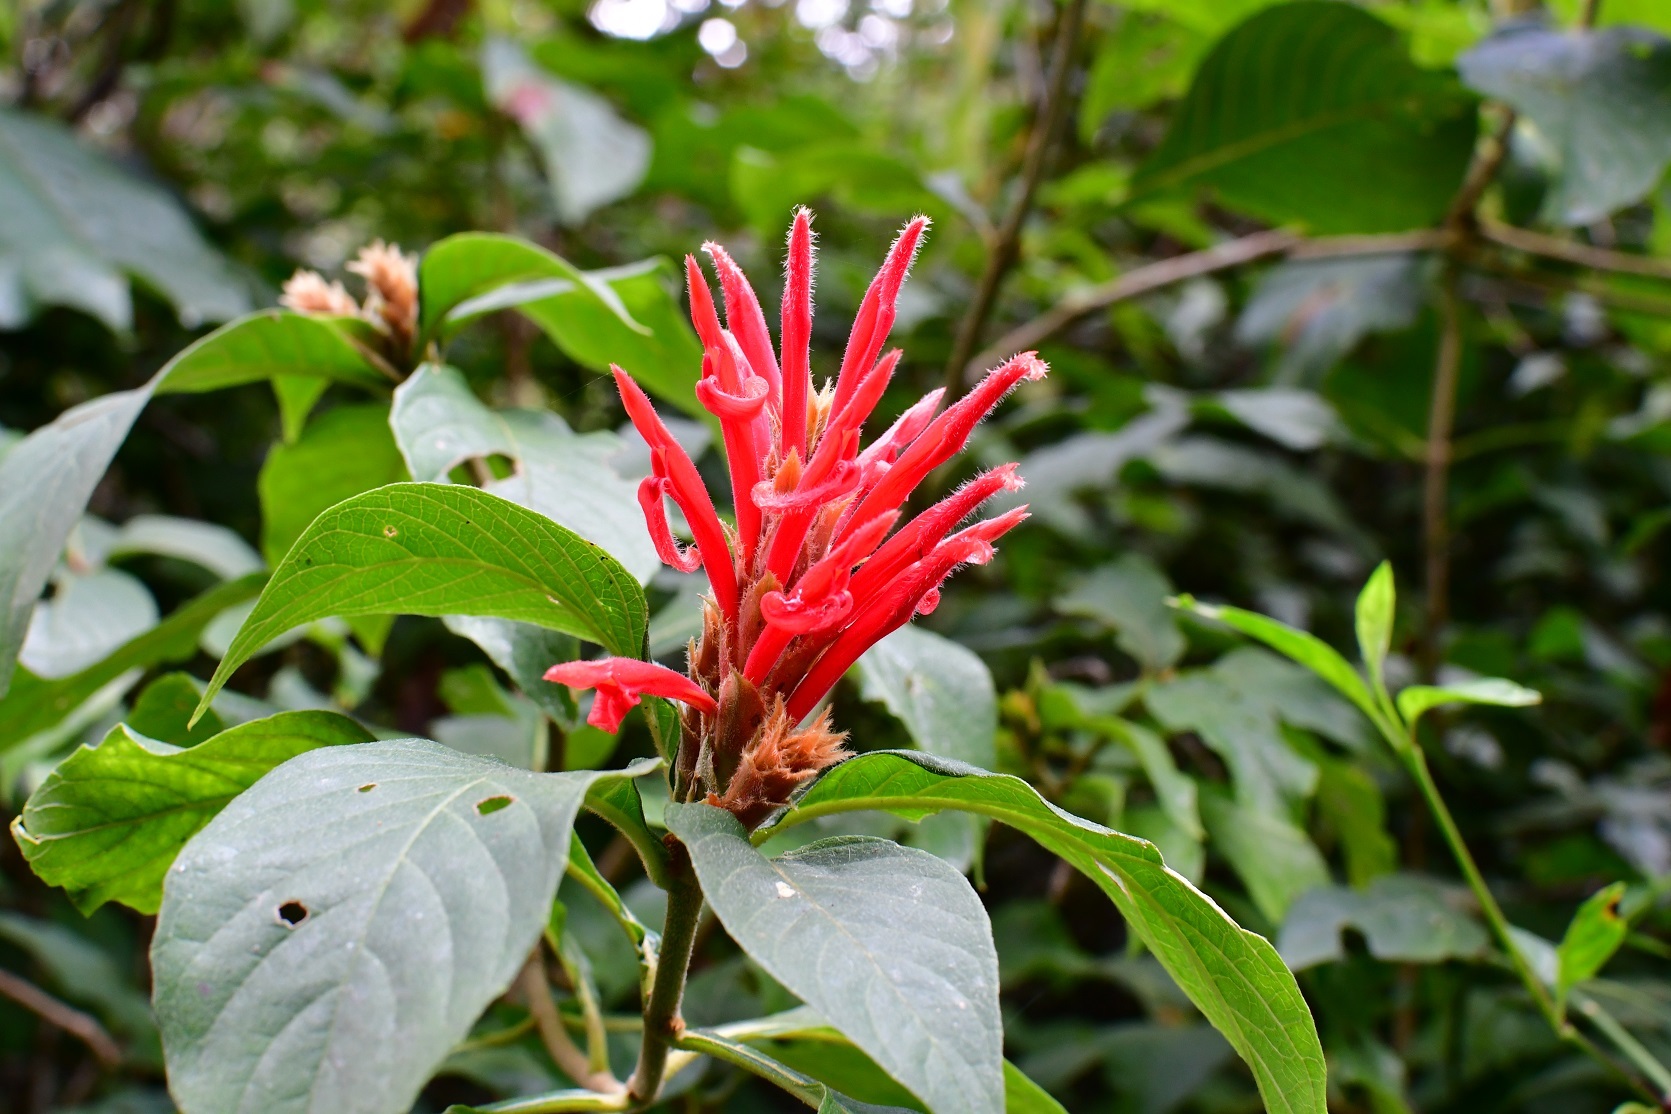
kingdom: Plantae
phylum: Tracheophyta
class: Magnoliopsida
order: Lamiales
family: Acanthaceae
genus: Aphelandra
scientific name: Aphelandra scabra
